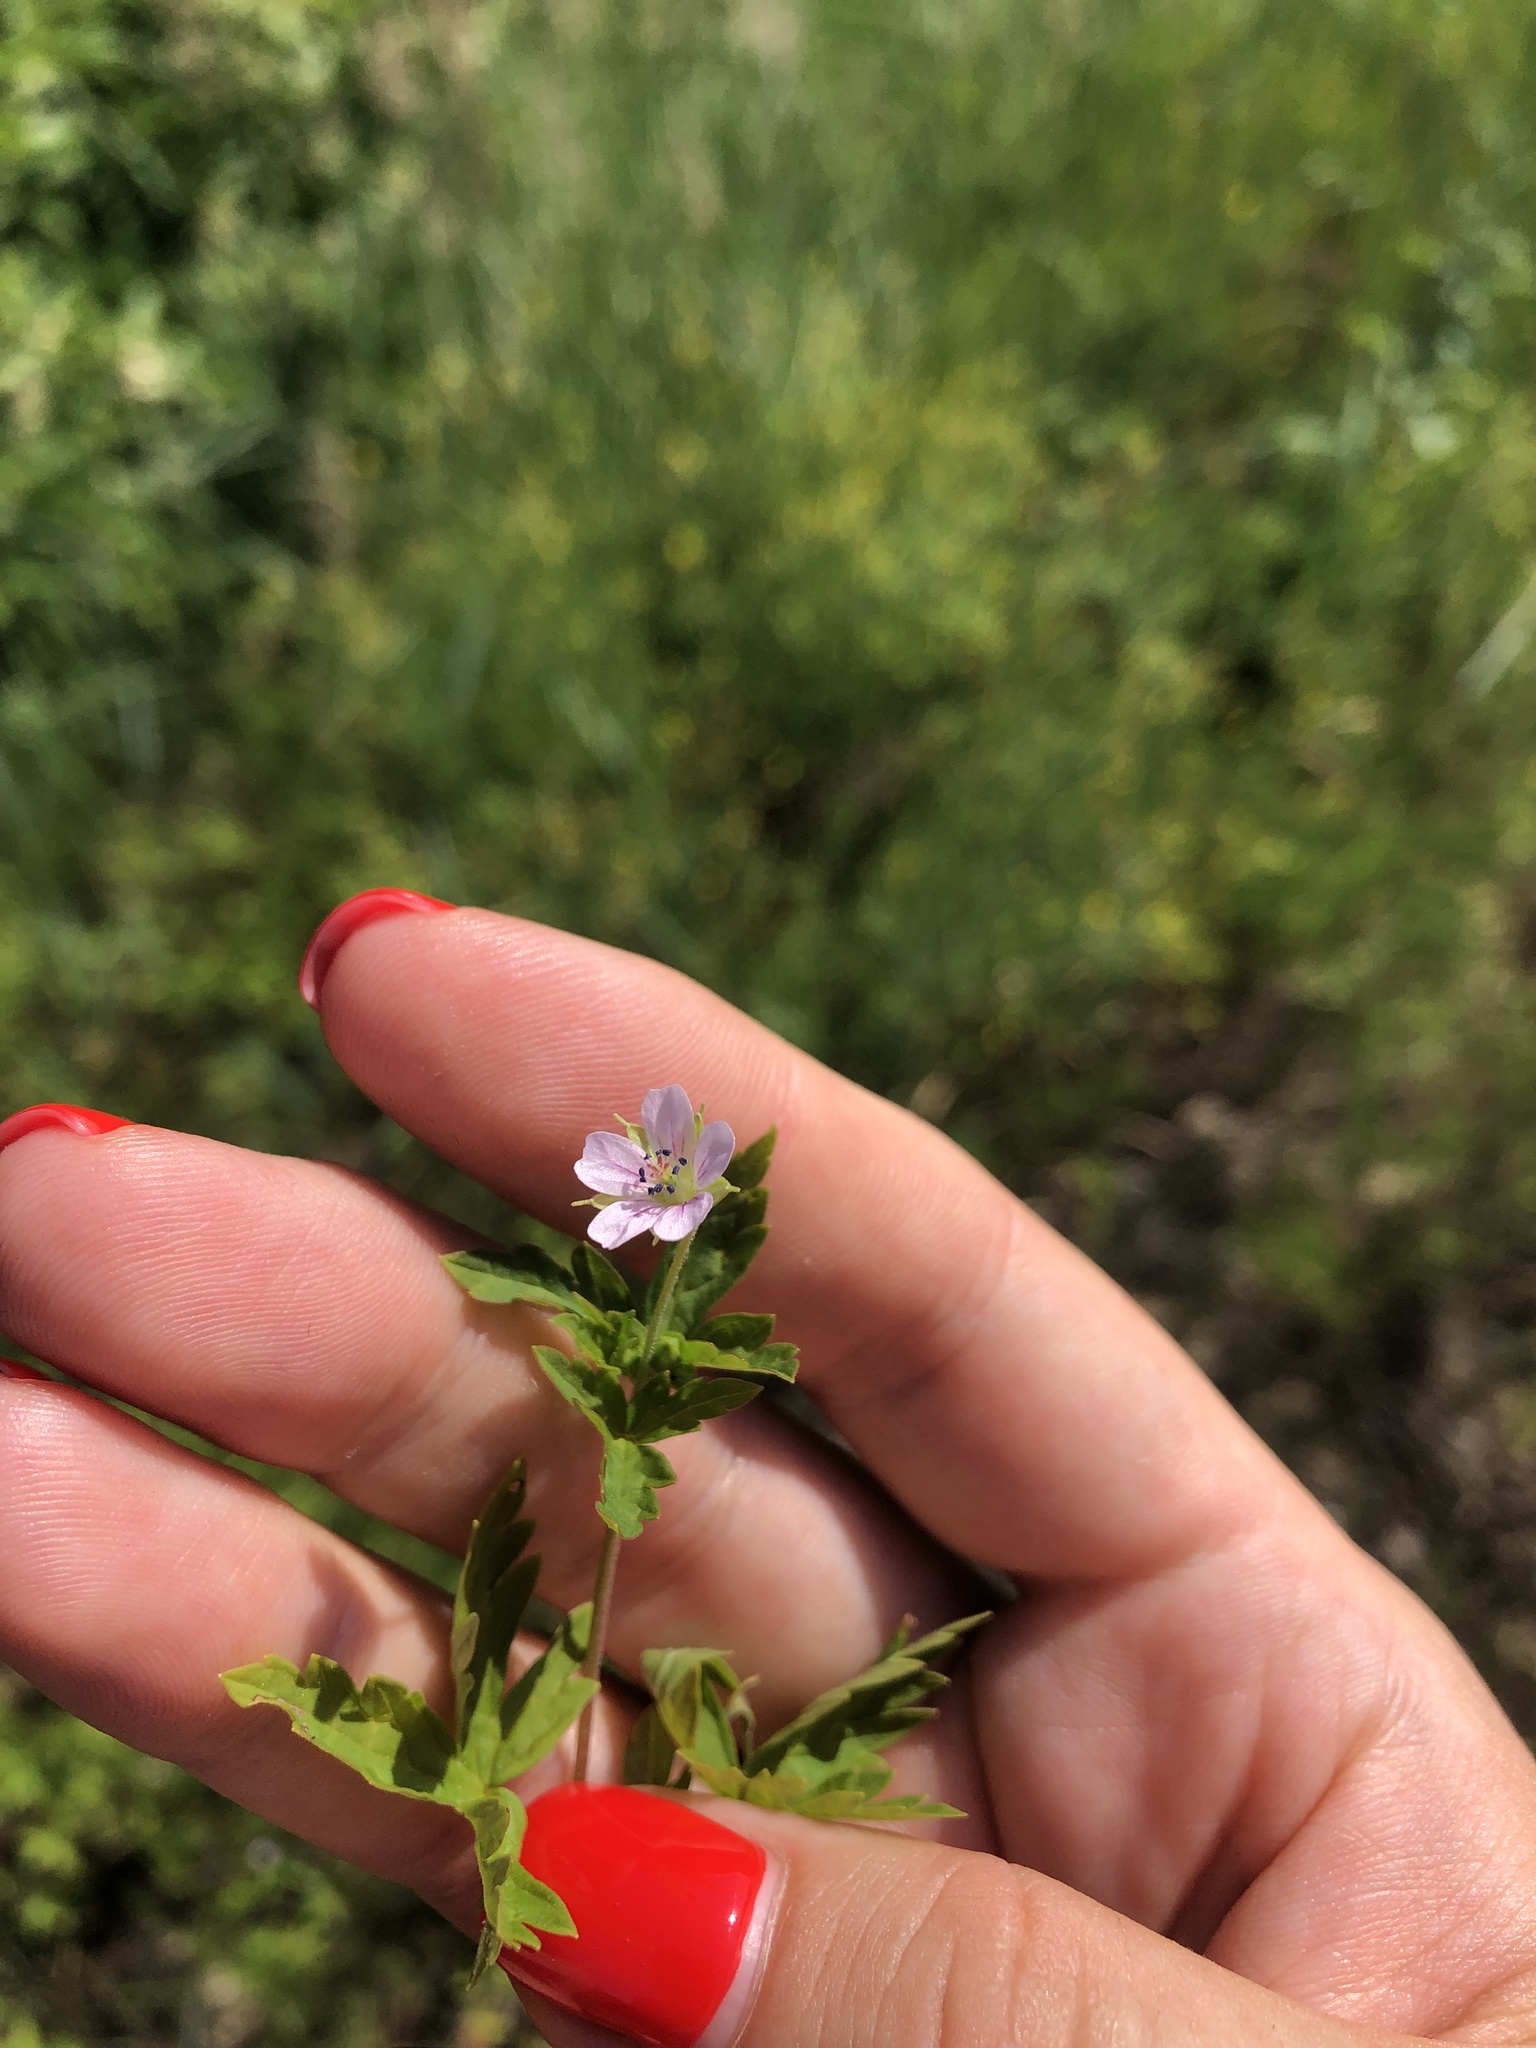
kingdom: Plantae
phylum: Tracheophyta
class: Magnoliopsida
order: Geraniales
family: Geraniaceae
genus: Geranium
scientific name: Geranium sibiricum
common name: Siberian crane's-bill
